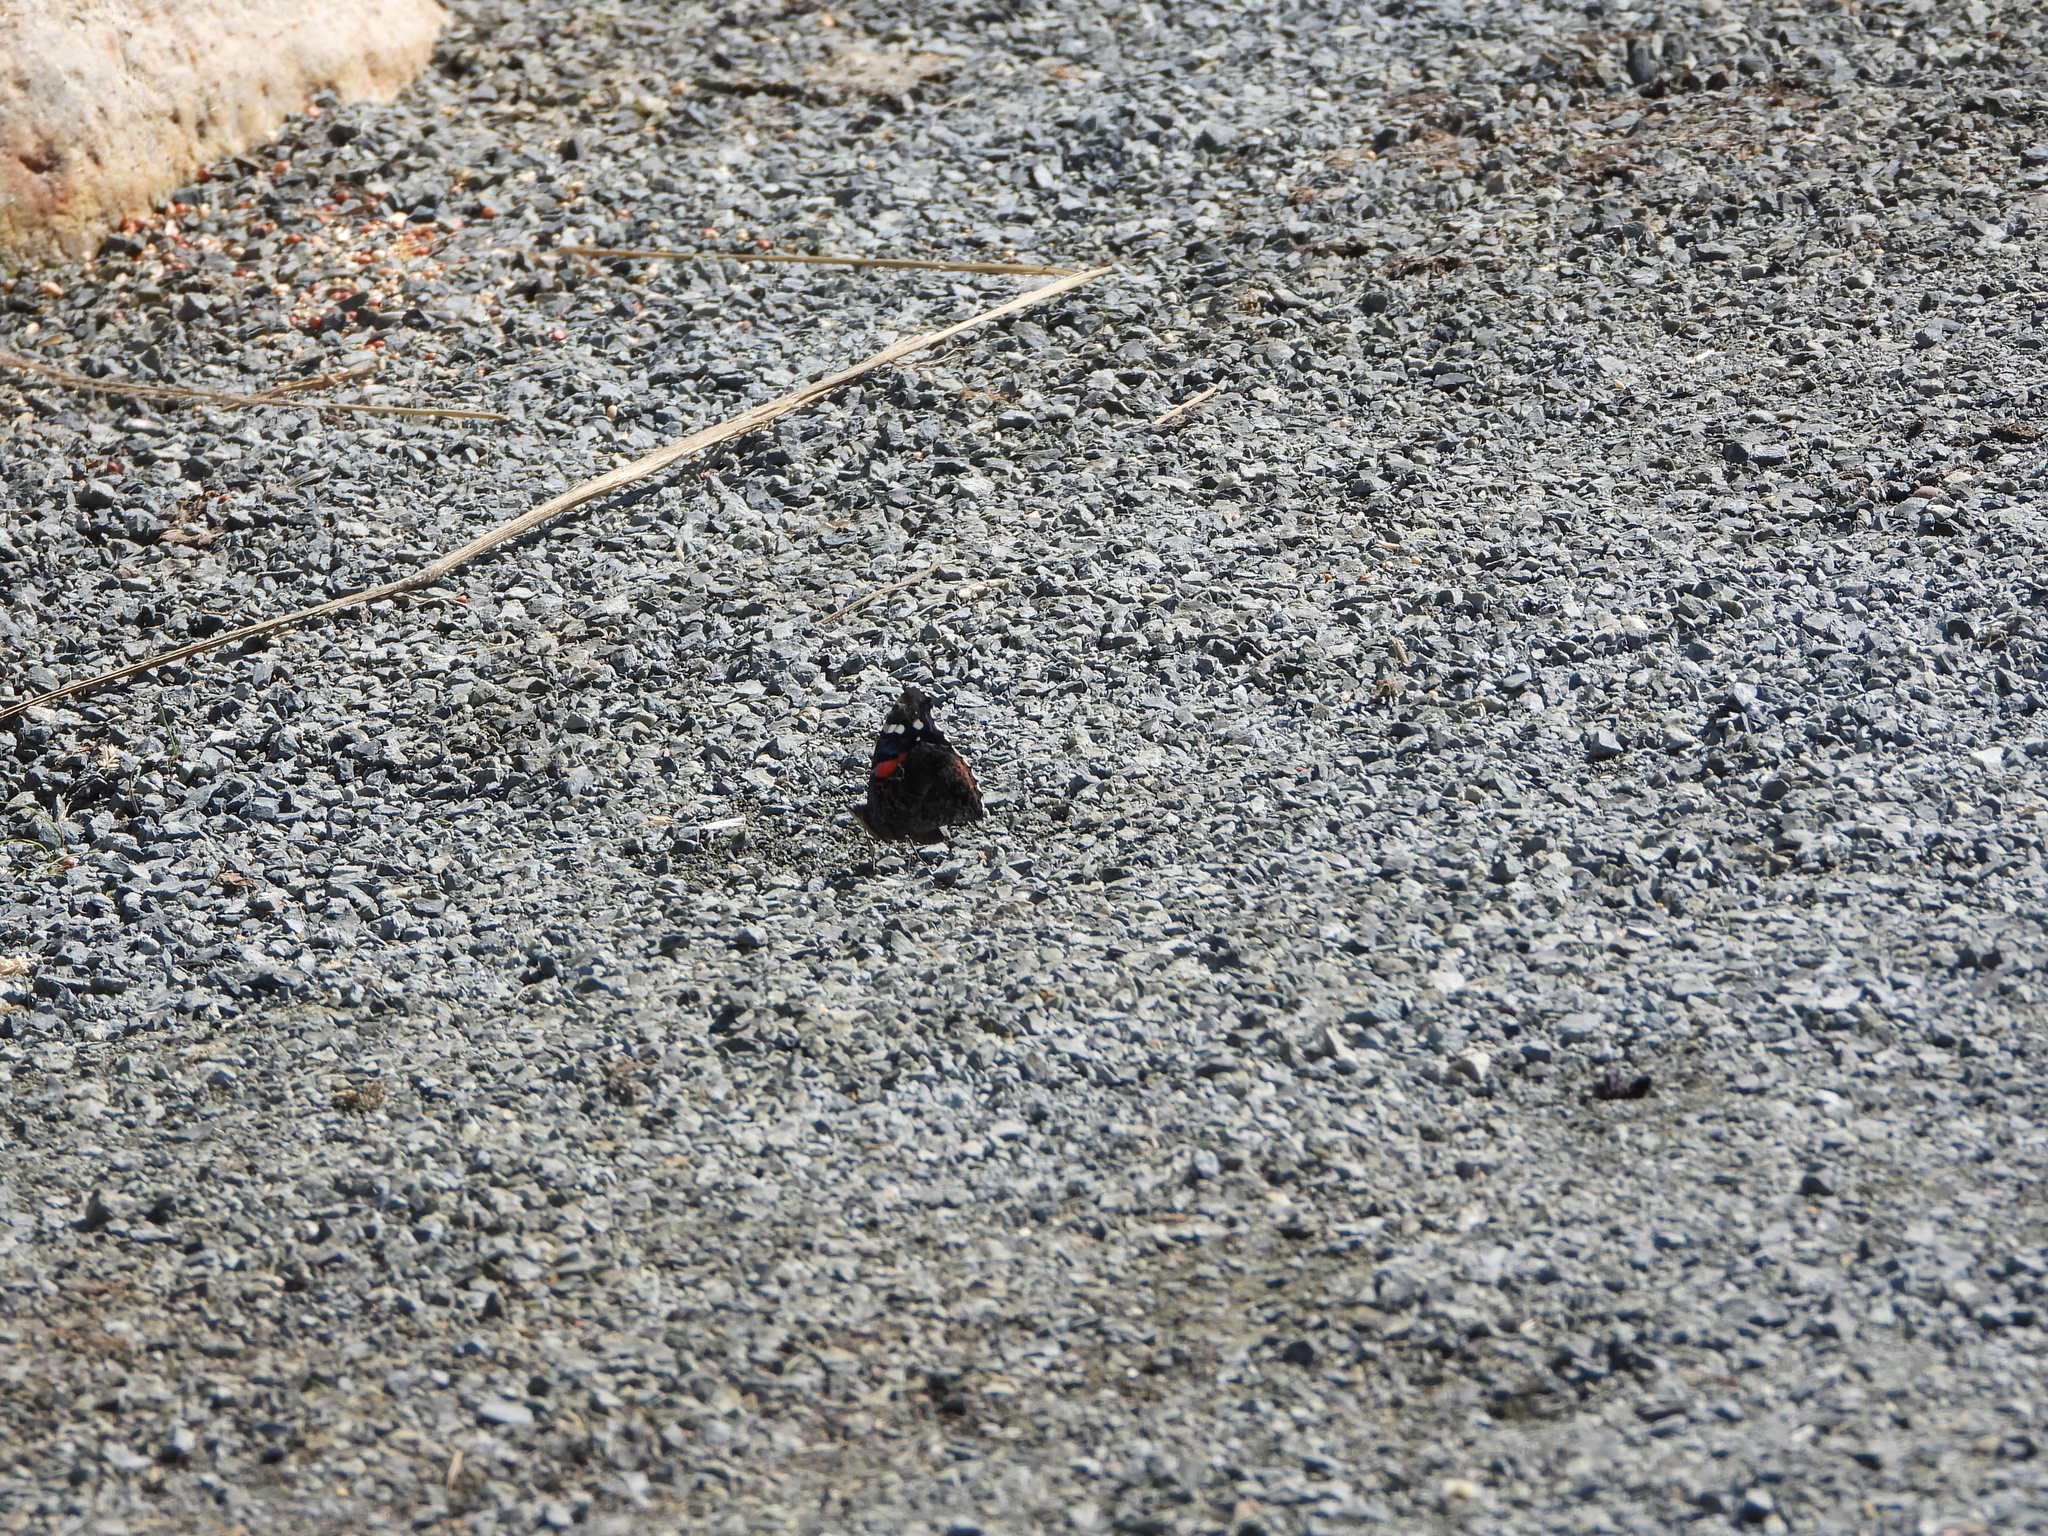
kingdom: Animalia
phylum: Arthropoda
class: Insecta
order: Lepidoptera
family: Nymphalidae
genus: Vanessa
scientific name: Vanessa atalanta
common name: Red admiral
